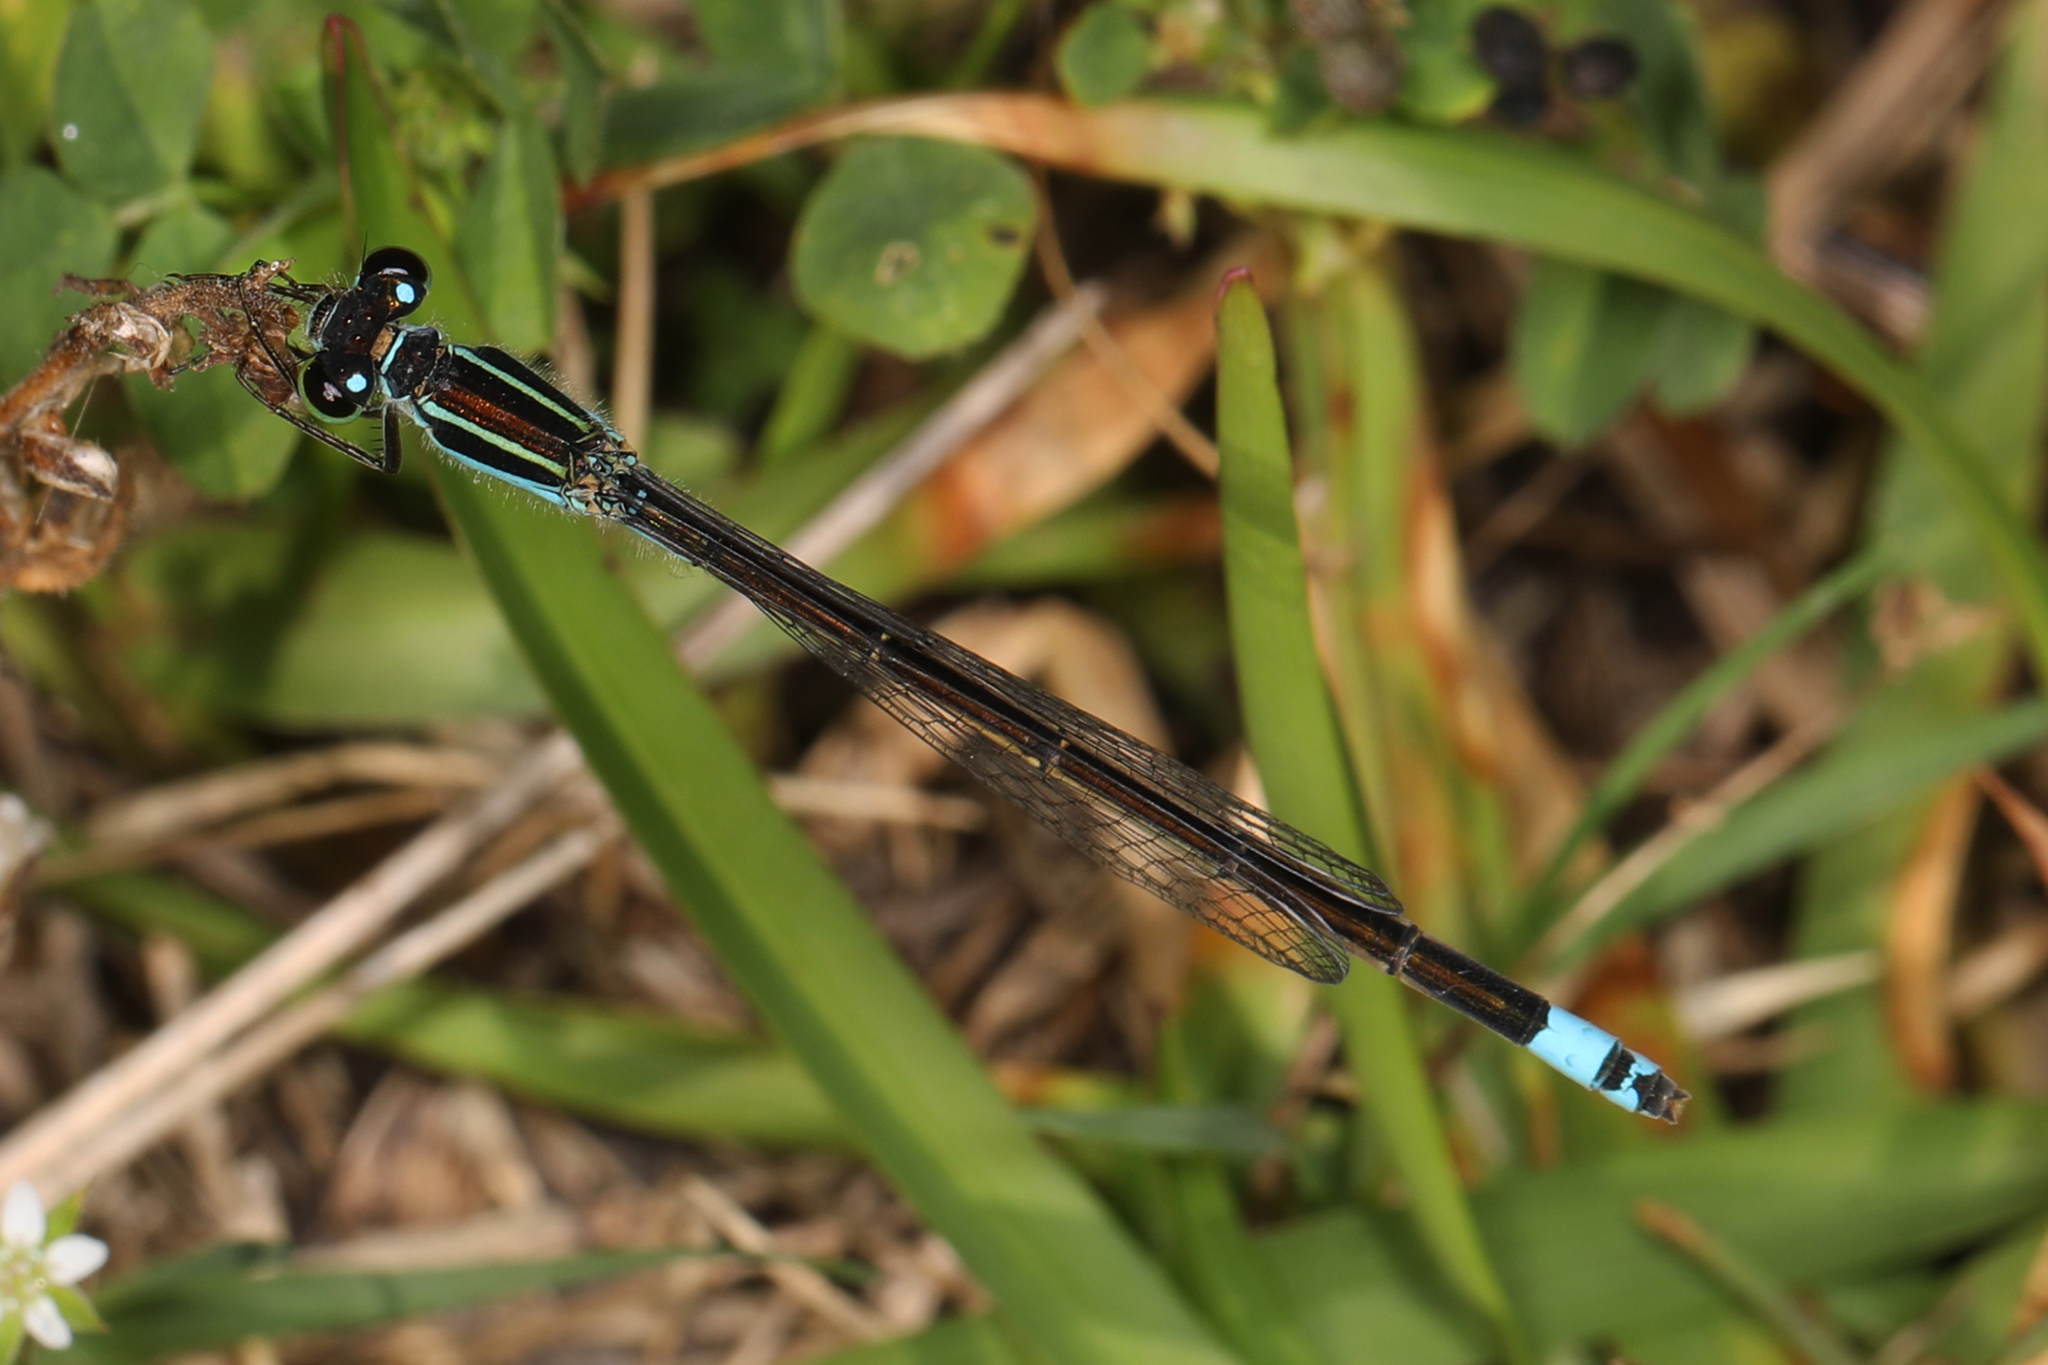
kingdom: Animalia
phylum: Arthropoda
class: Insecta
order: Odonata
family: Coenagrionidae
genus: Ischnura
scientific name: Ischnura ramburii
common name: Rambur's forktail
